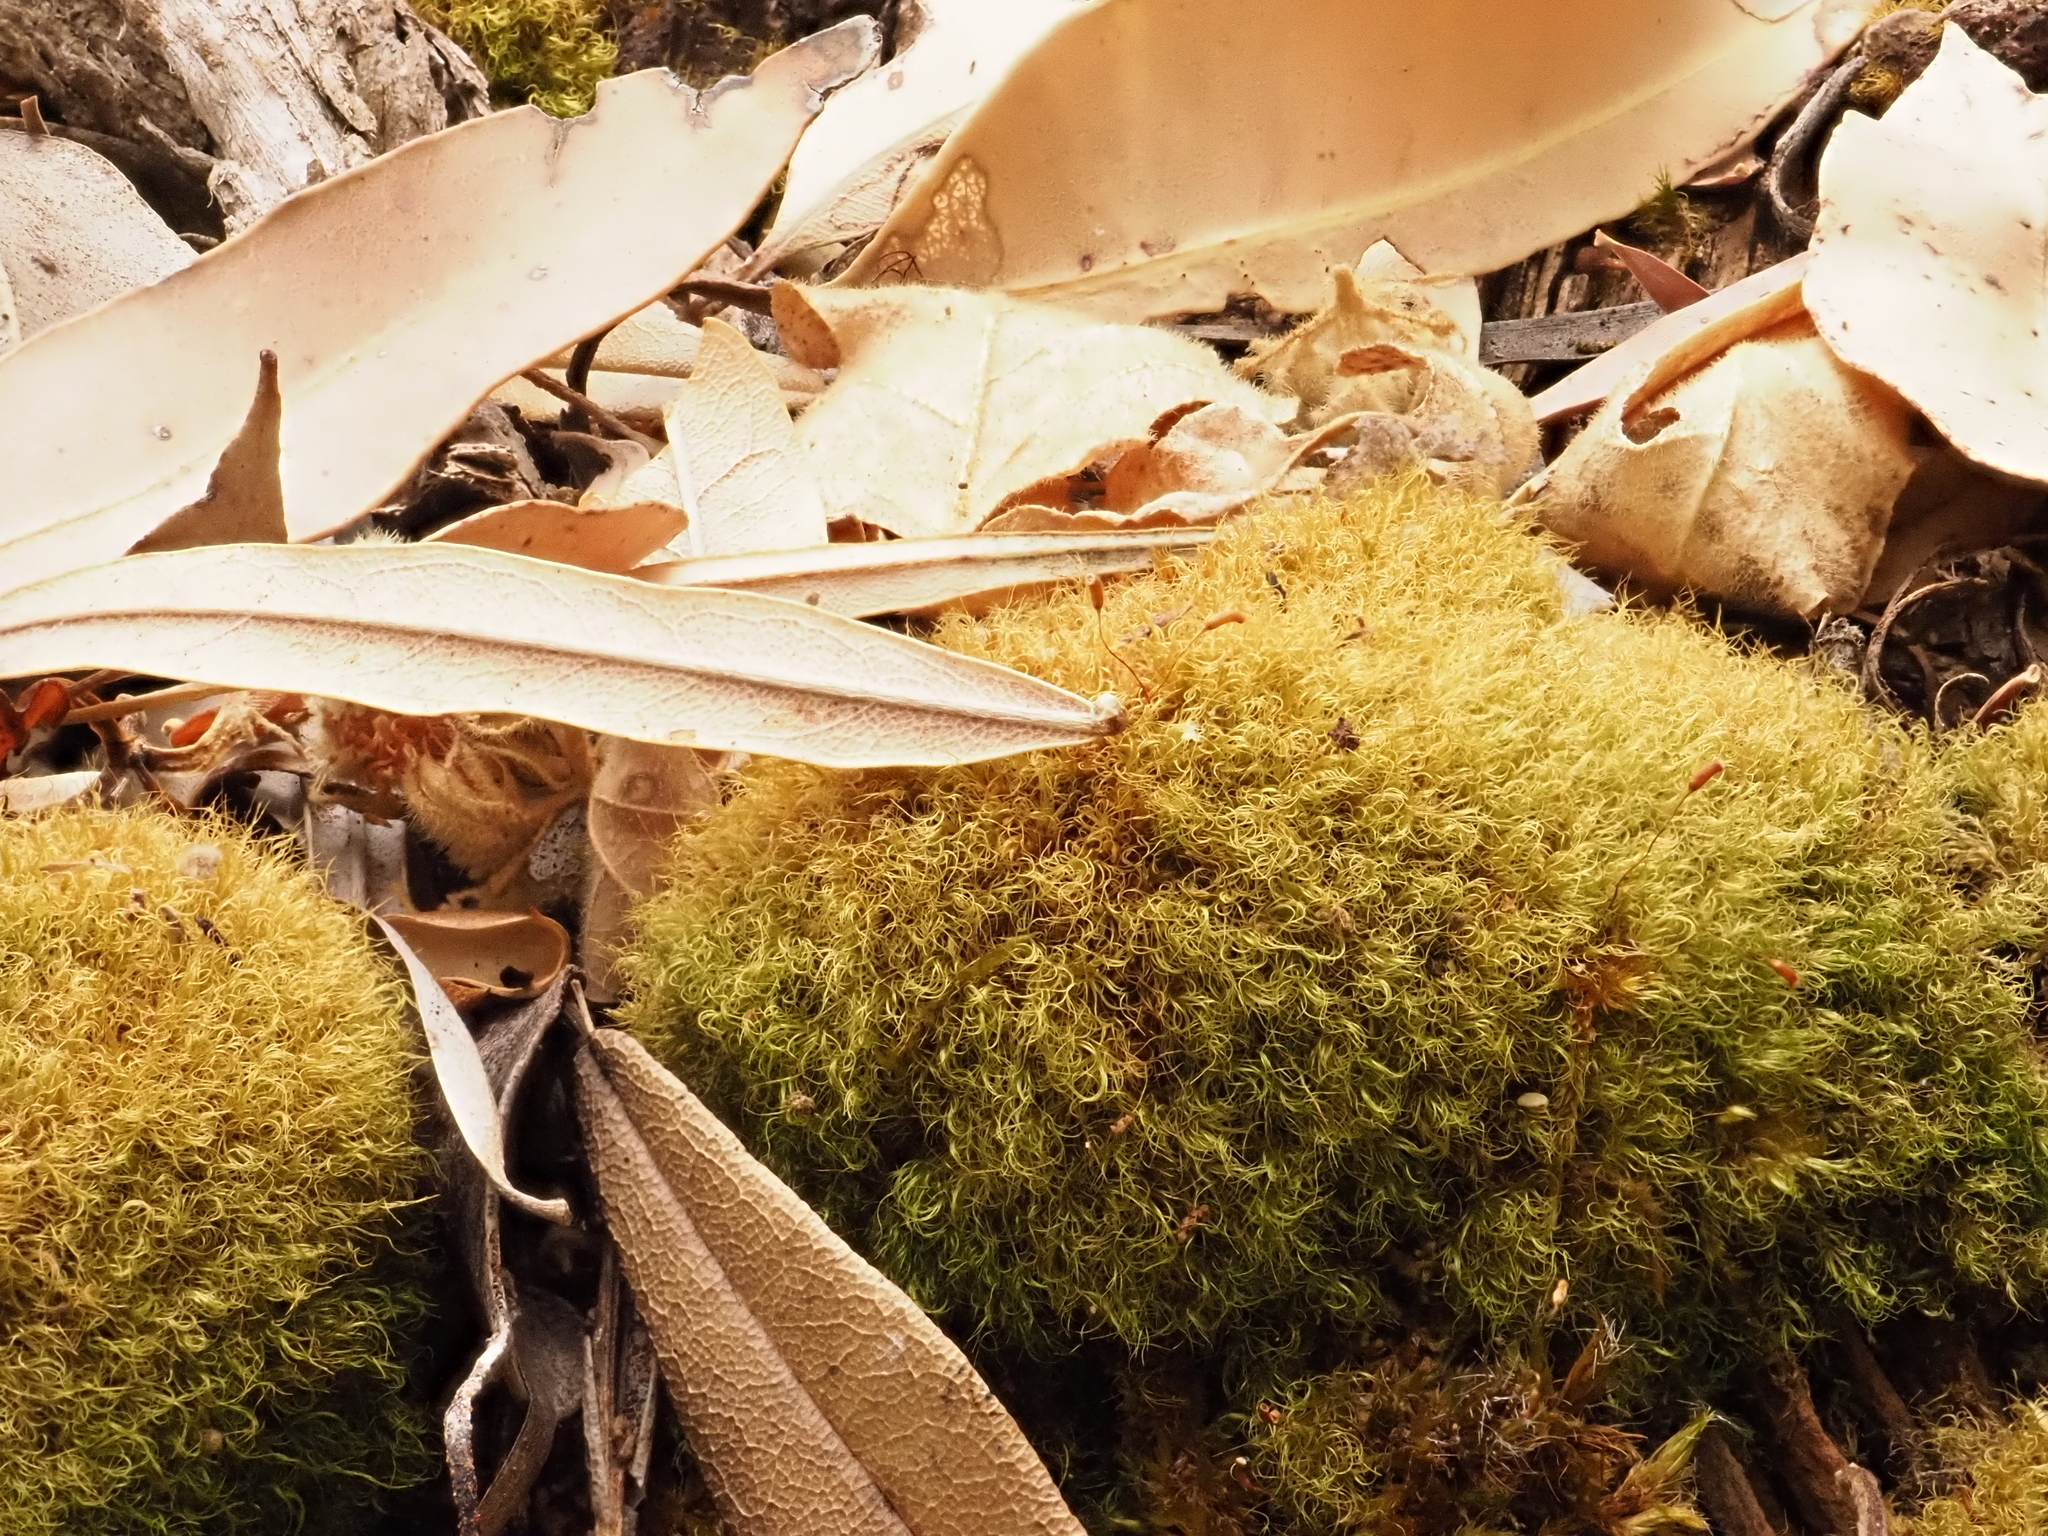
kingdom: Plantae
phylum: Bryophyta
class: Bryopsida
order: Dicranales
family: Dicranaceae
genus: Dicranoloma
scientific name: Dicranoloma diaphanoneuron
